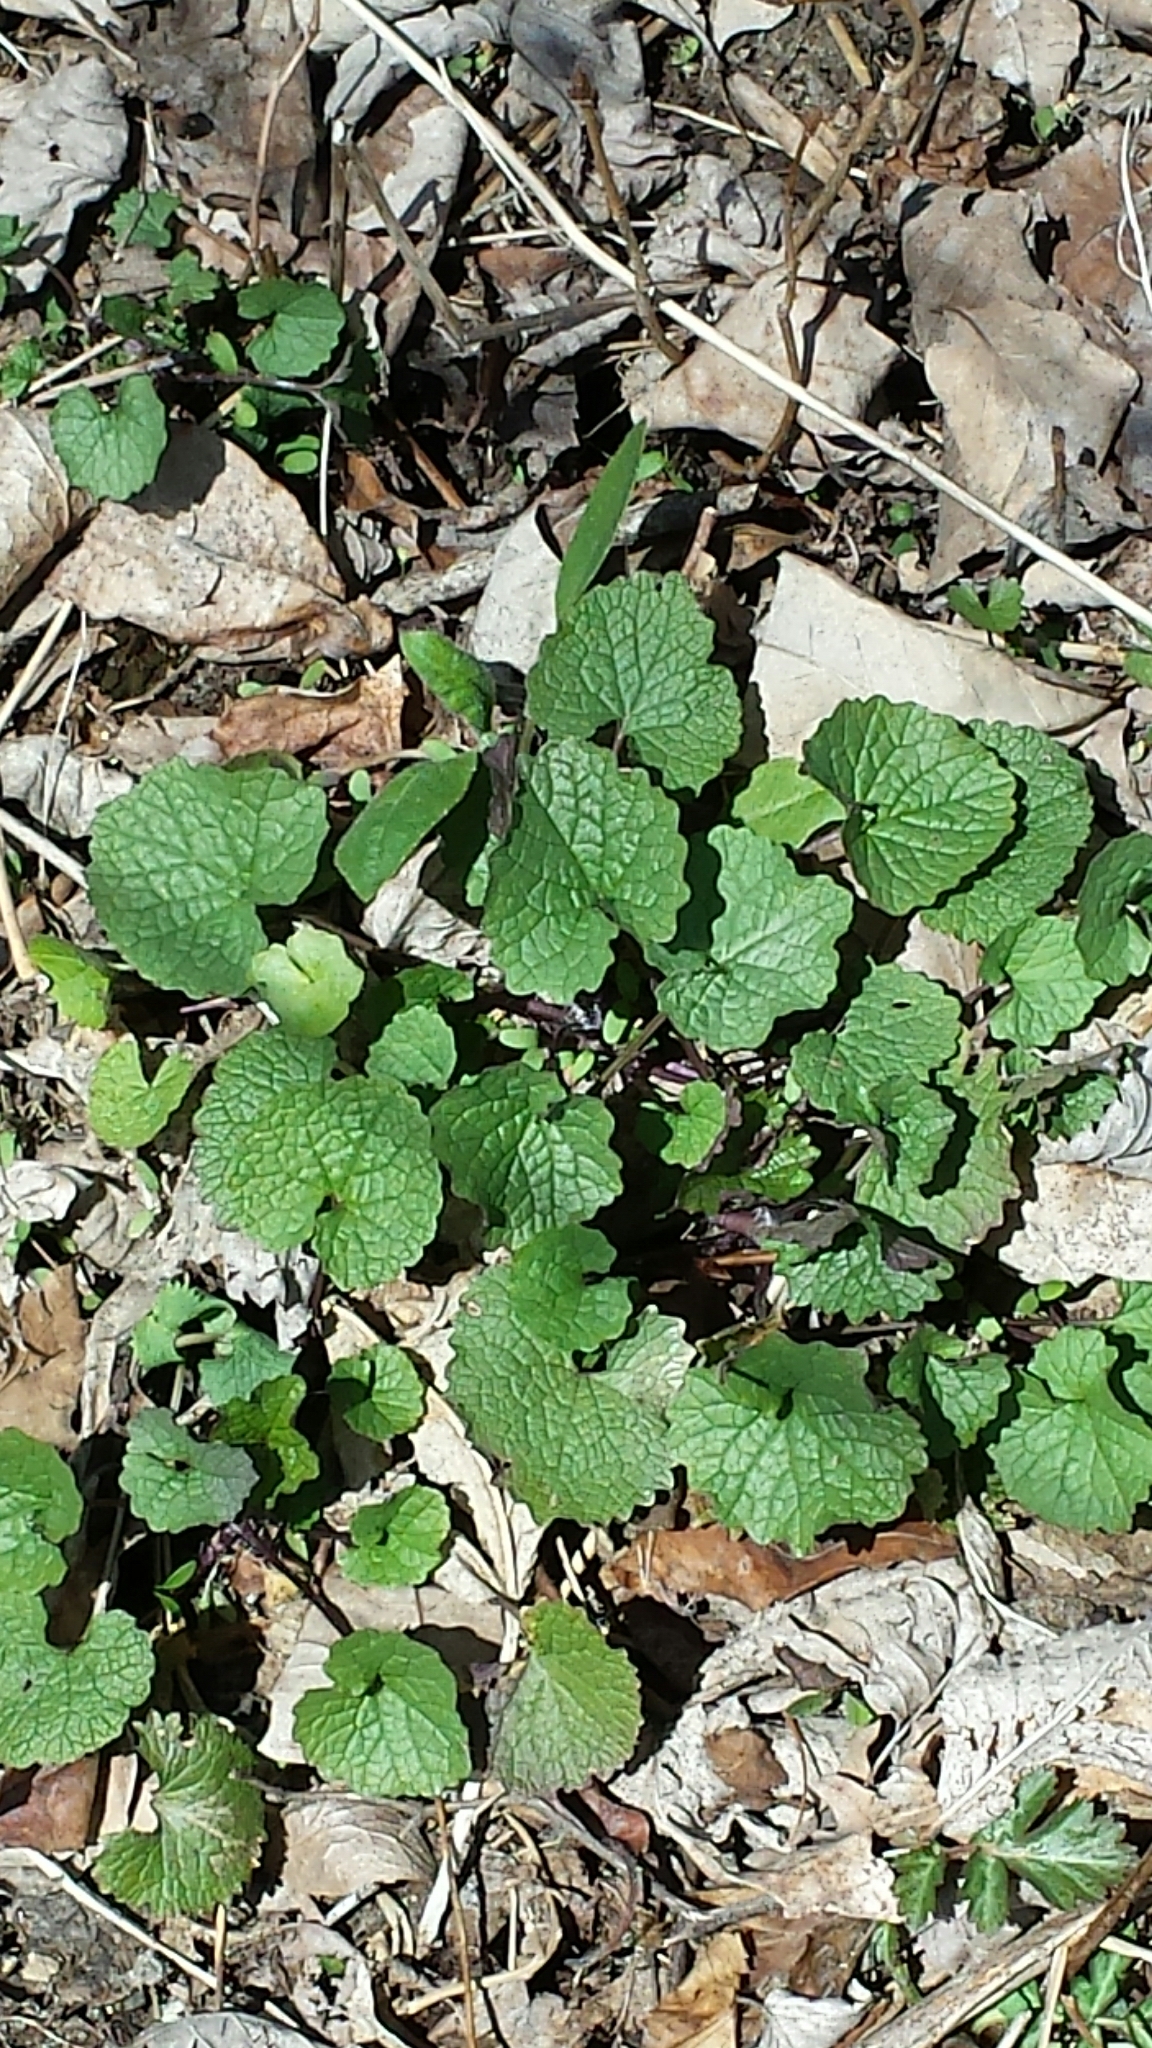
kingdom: Plantae
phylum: Tracheophyta
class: Magnoliopsida
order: Brassicales
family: Brassicaceae
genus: Alliaria
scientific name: Alliaria petiolata
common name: Garlic mustard
